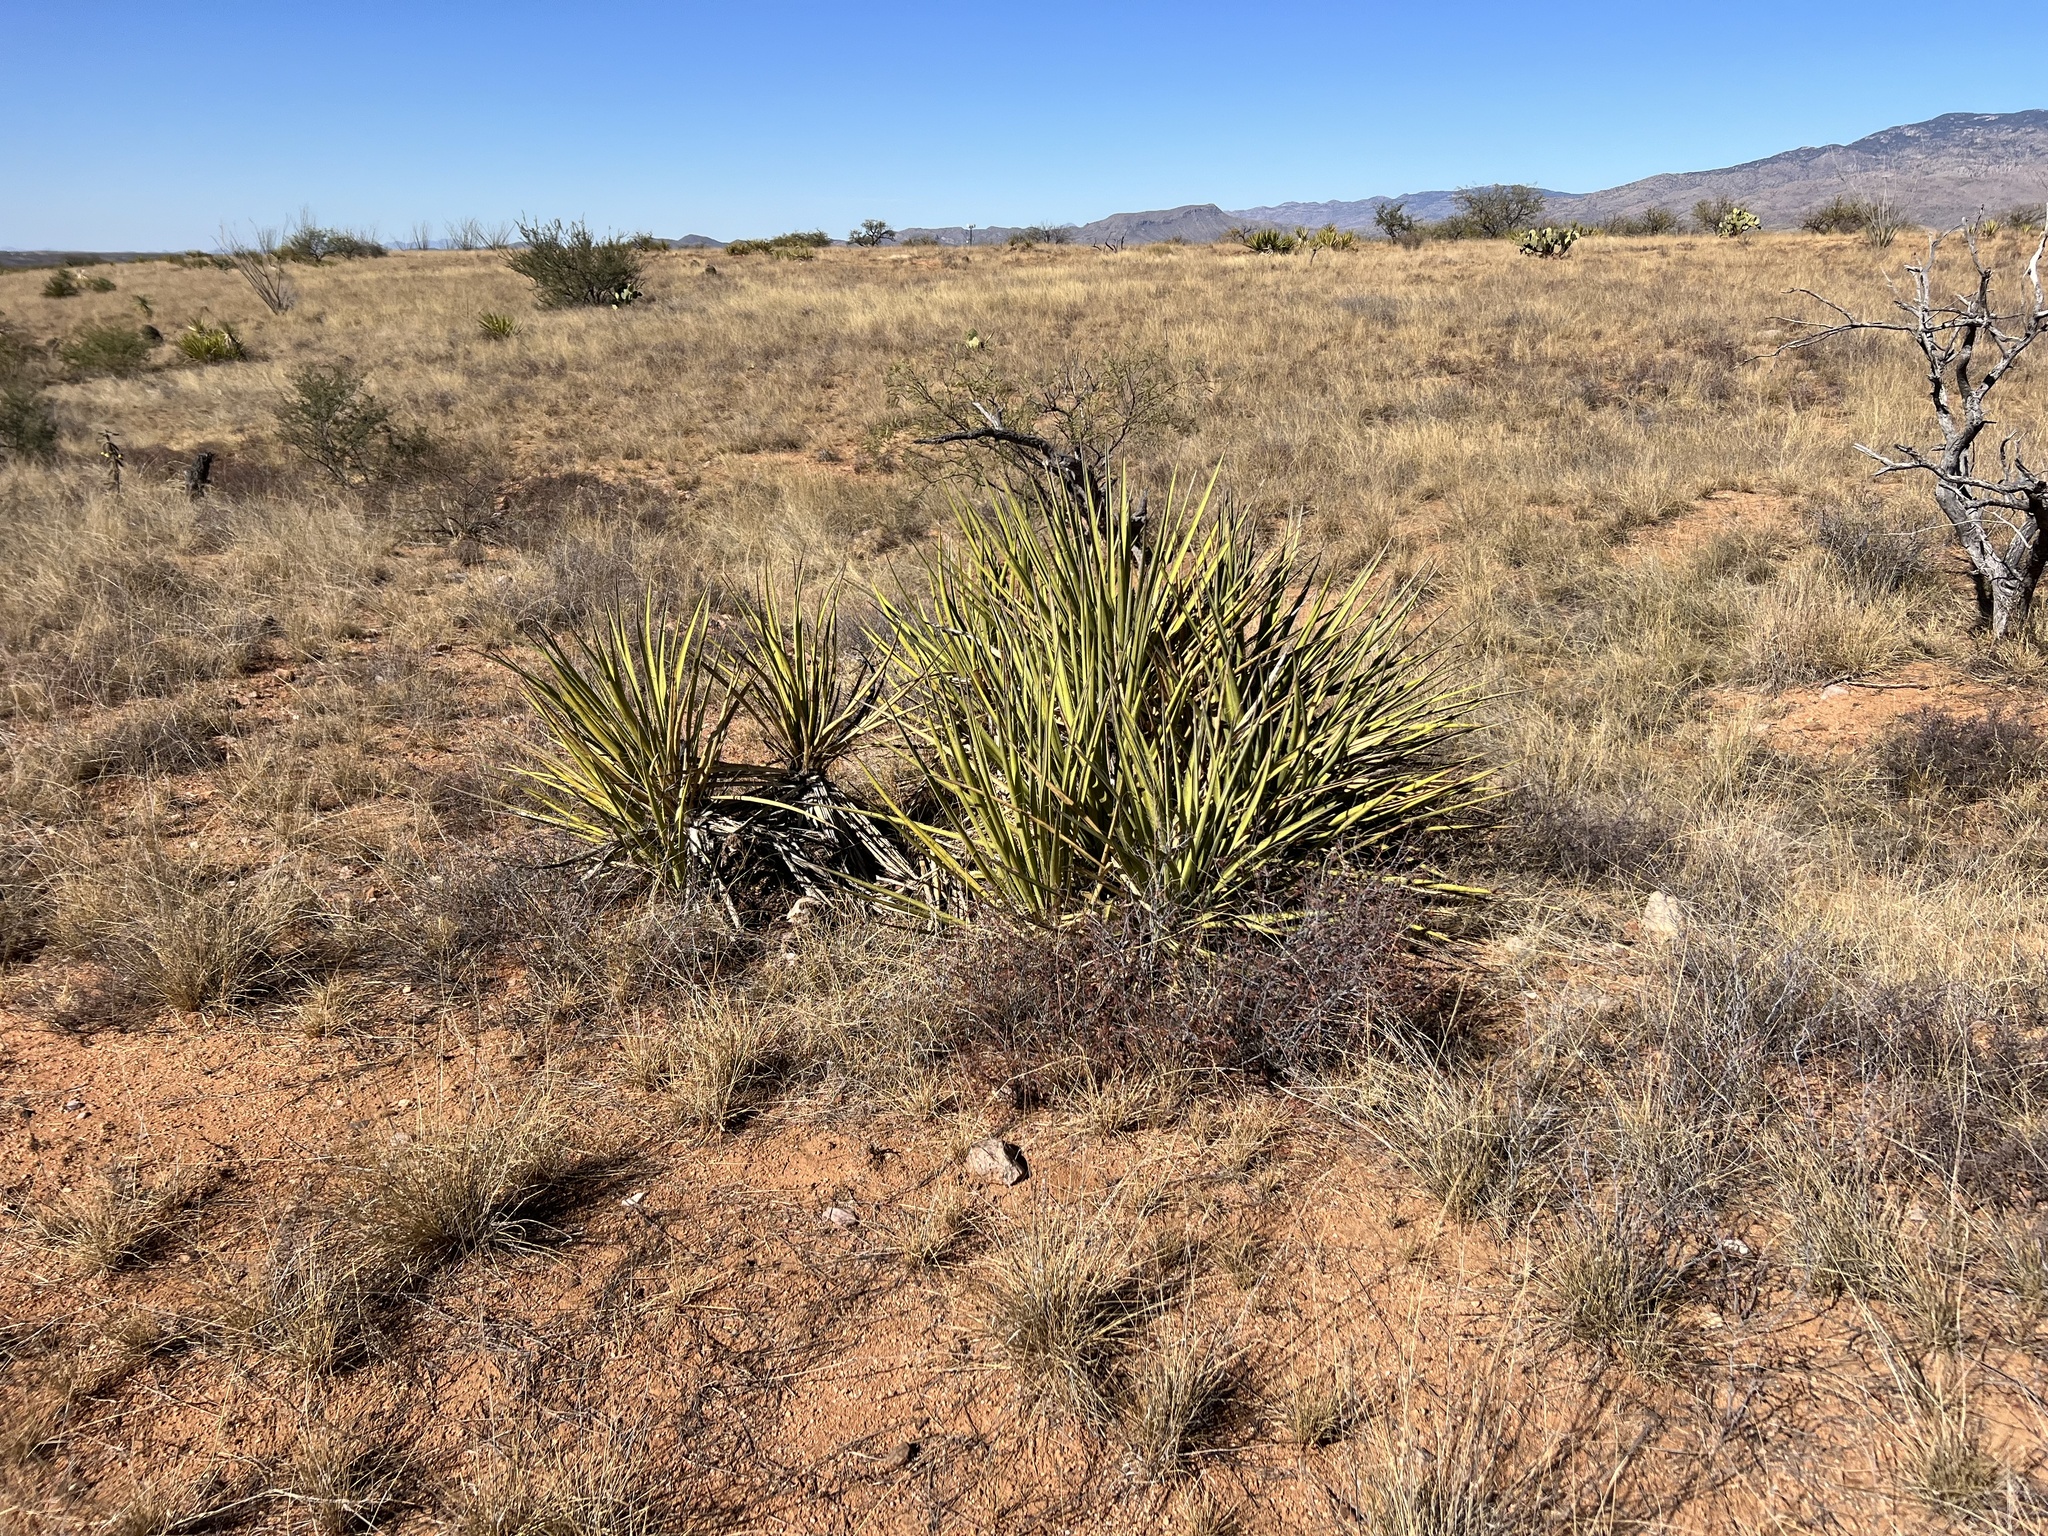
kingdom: Plantae
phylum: Tracheophyta
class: Liliopsida
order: Asparagales
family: Asparagaceae
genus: Yucca
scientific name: Yucca baccata
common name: Banana yucca
